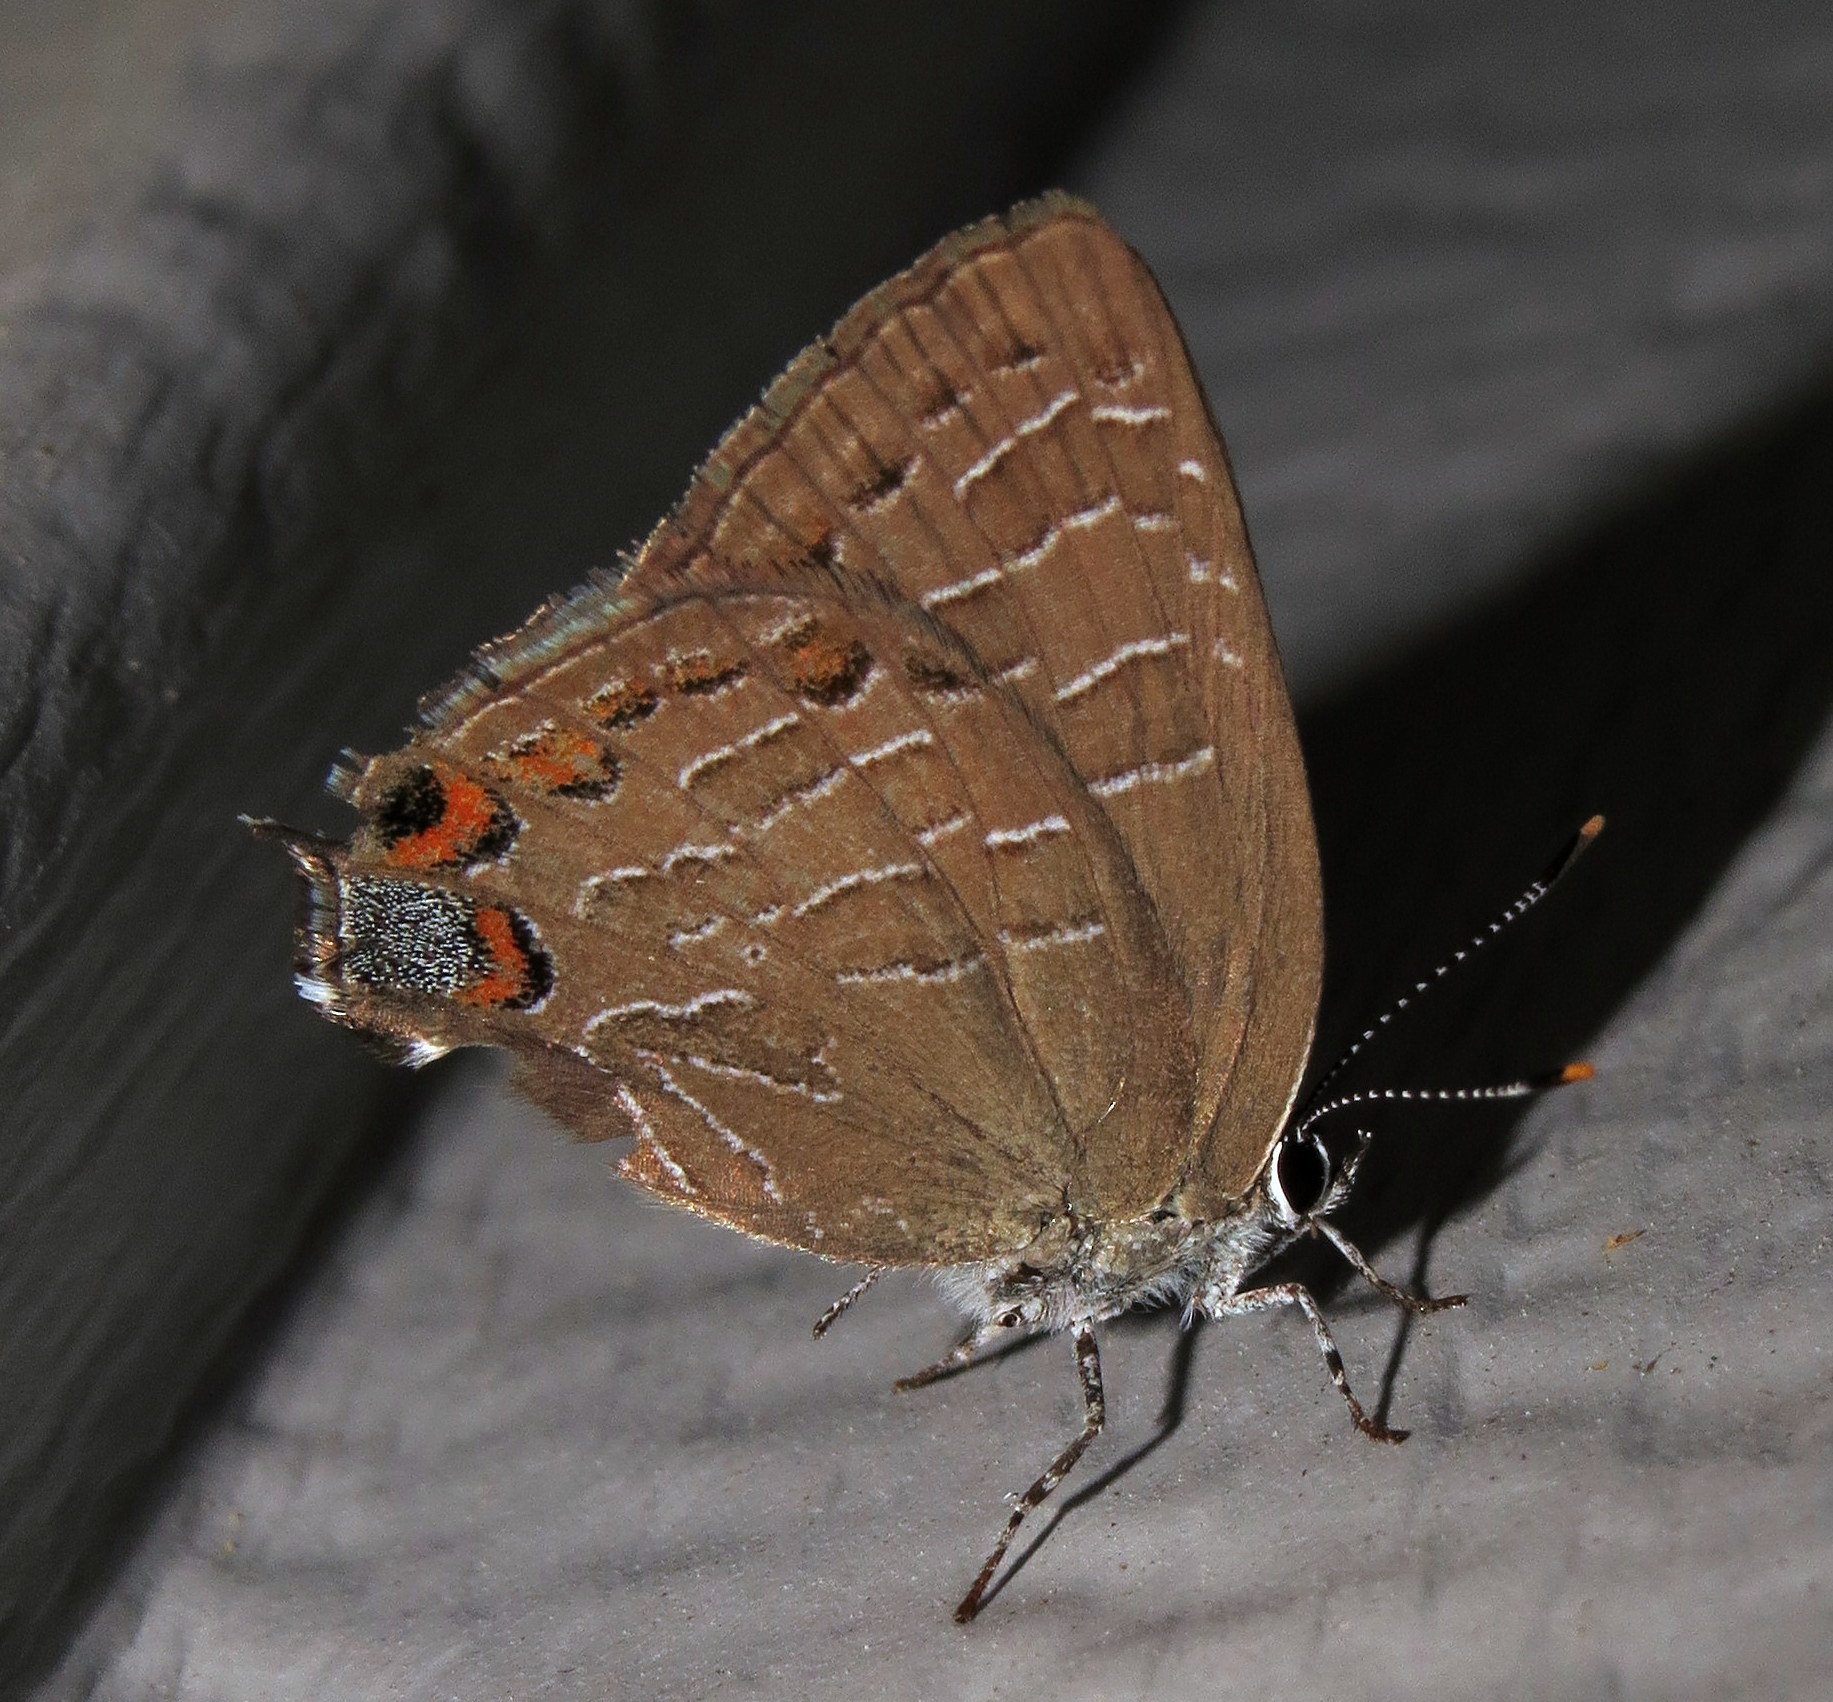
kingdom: Animalia
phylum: Arthropoda
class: Insecta
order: Lepidoptera
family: Lycaenidae
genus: Satyrium
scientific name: Satyrium liparops
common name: Striped hairstreak
